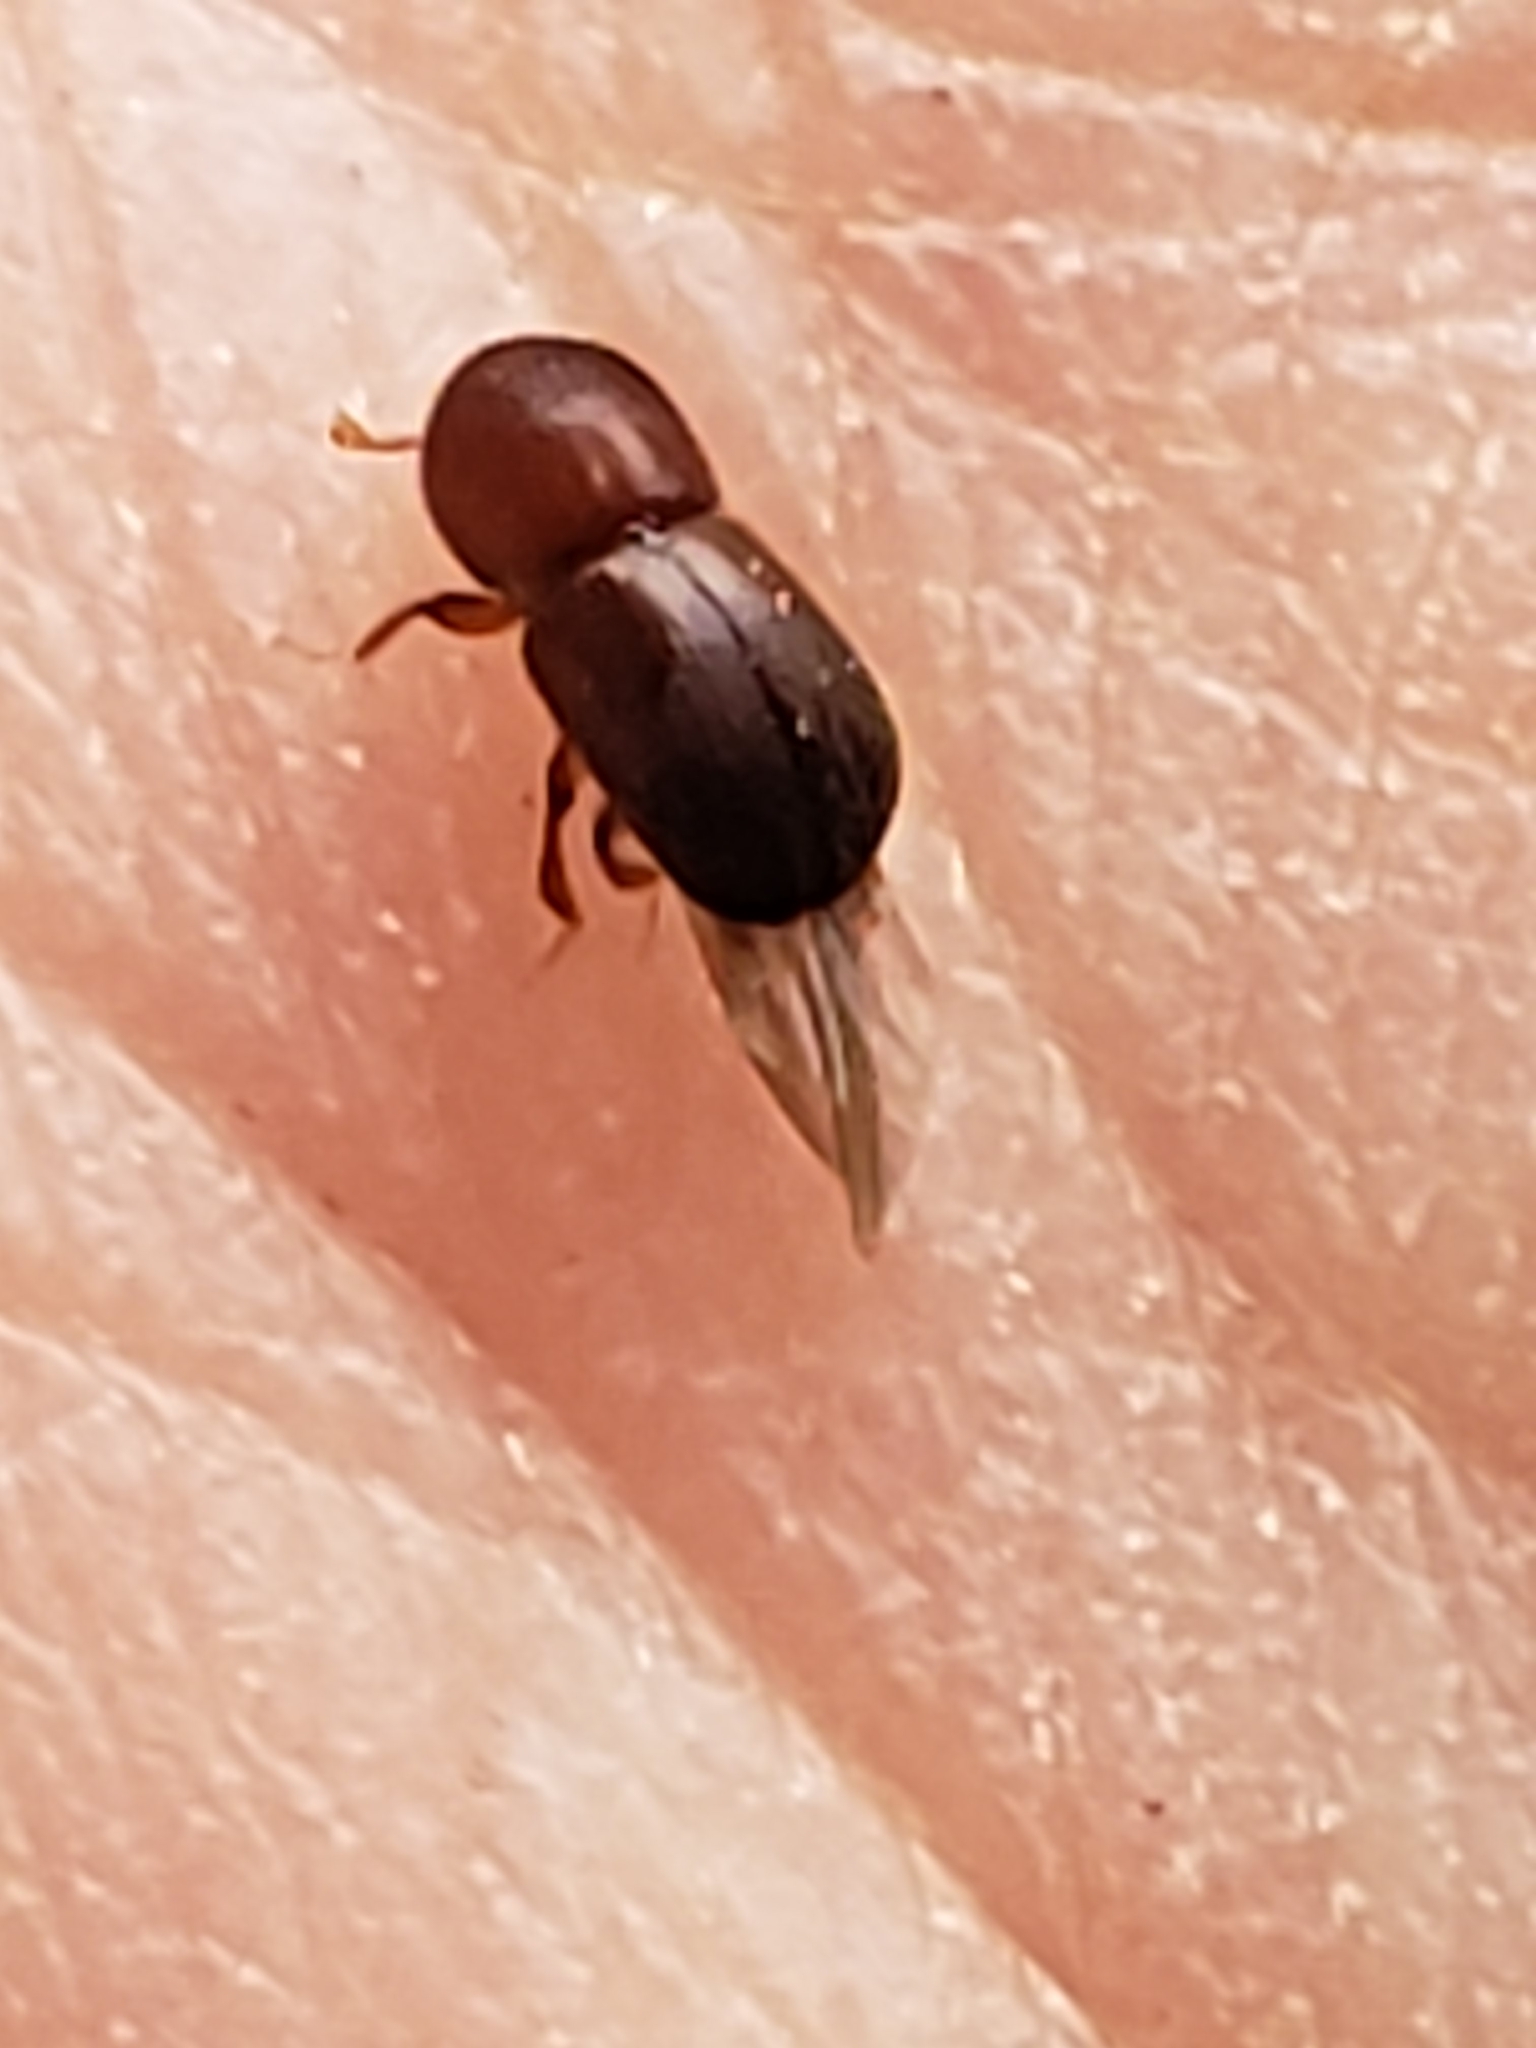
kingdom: Animalia
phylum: Arthropoda
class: Insecta
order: Coleoptera
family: Curculionidae
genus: Xylosandrus
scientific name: Xylosandrus crassiusculus
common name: Granulate ambrosia beetle
